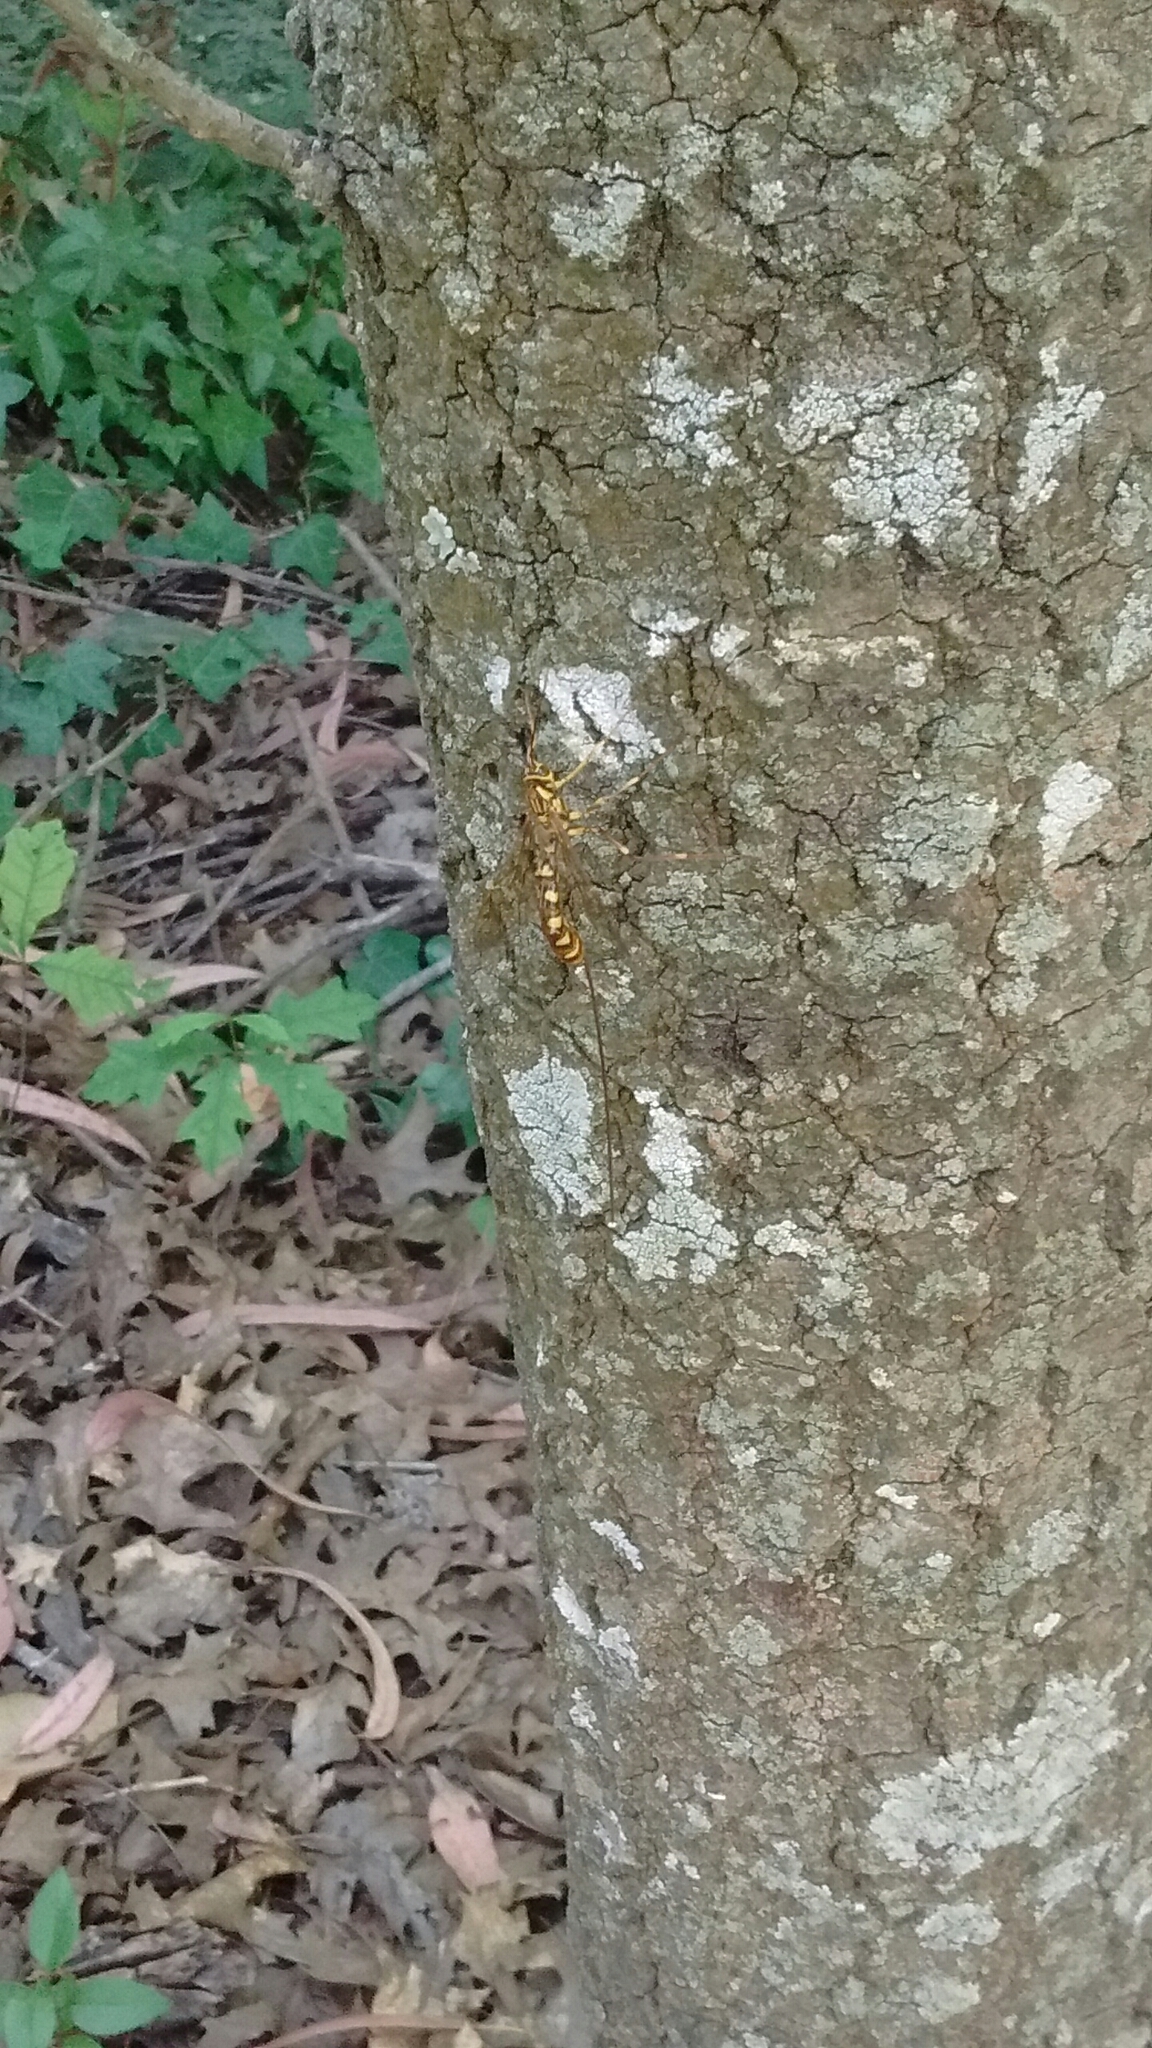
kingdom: Animalia
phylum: Arthropoda
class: Insecta
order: Hymenoptera
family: Ichneumonidae
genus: Megarhyssa
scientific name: Megarhyssa praecellens
